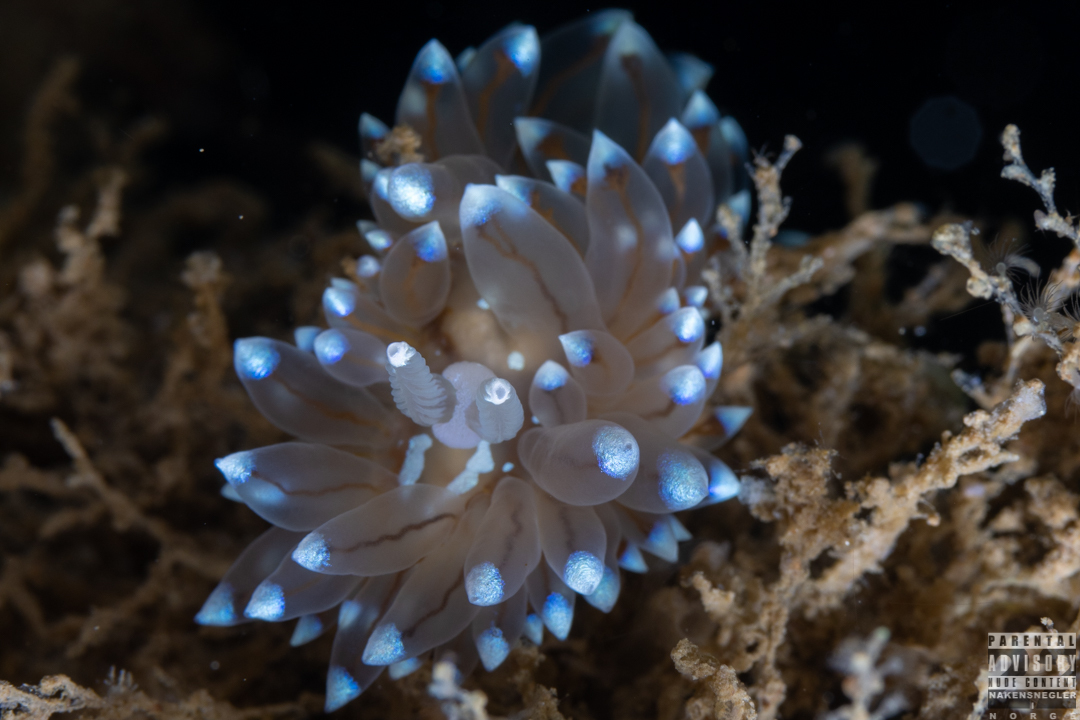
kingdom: Animalia
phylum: Mollusca
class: Gastropoda
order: Nudibranchia
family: Janolidae
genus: Antiopella
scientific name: Antiopella cristata
